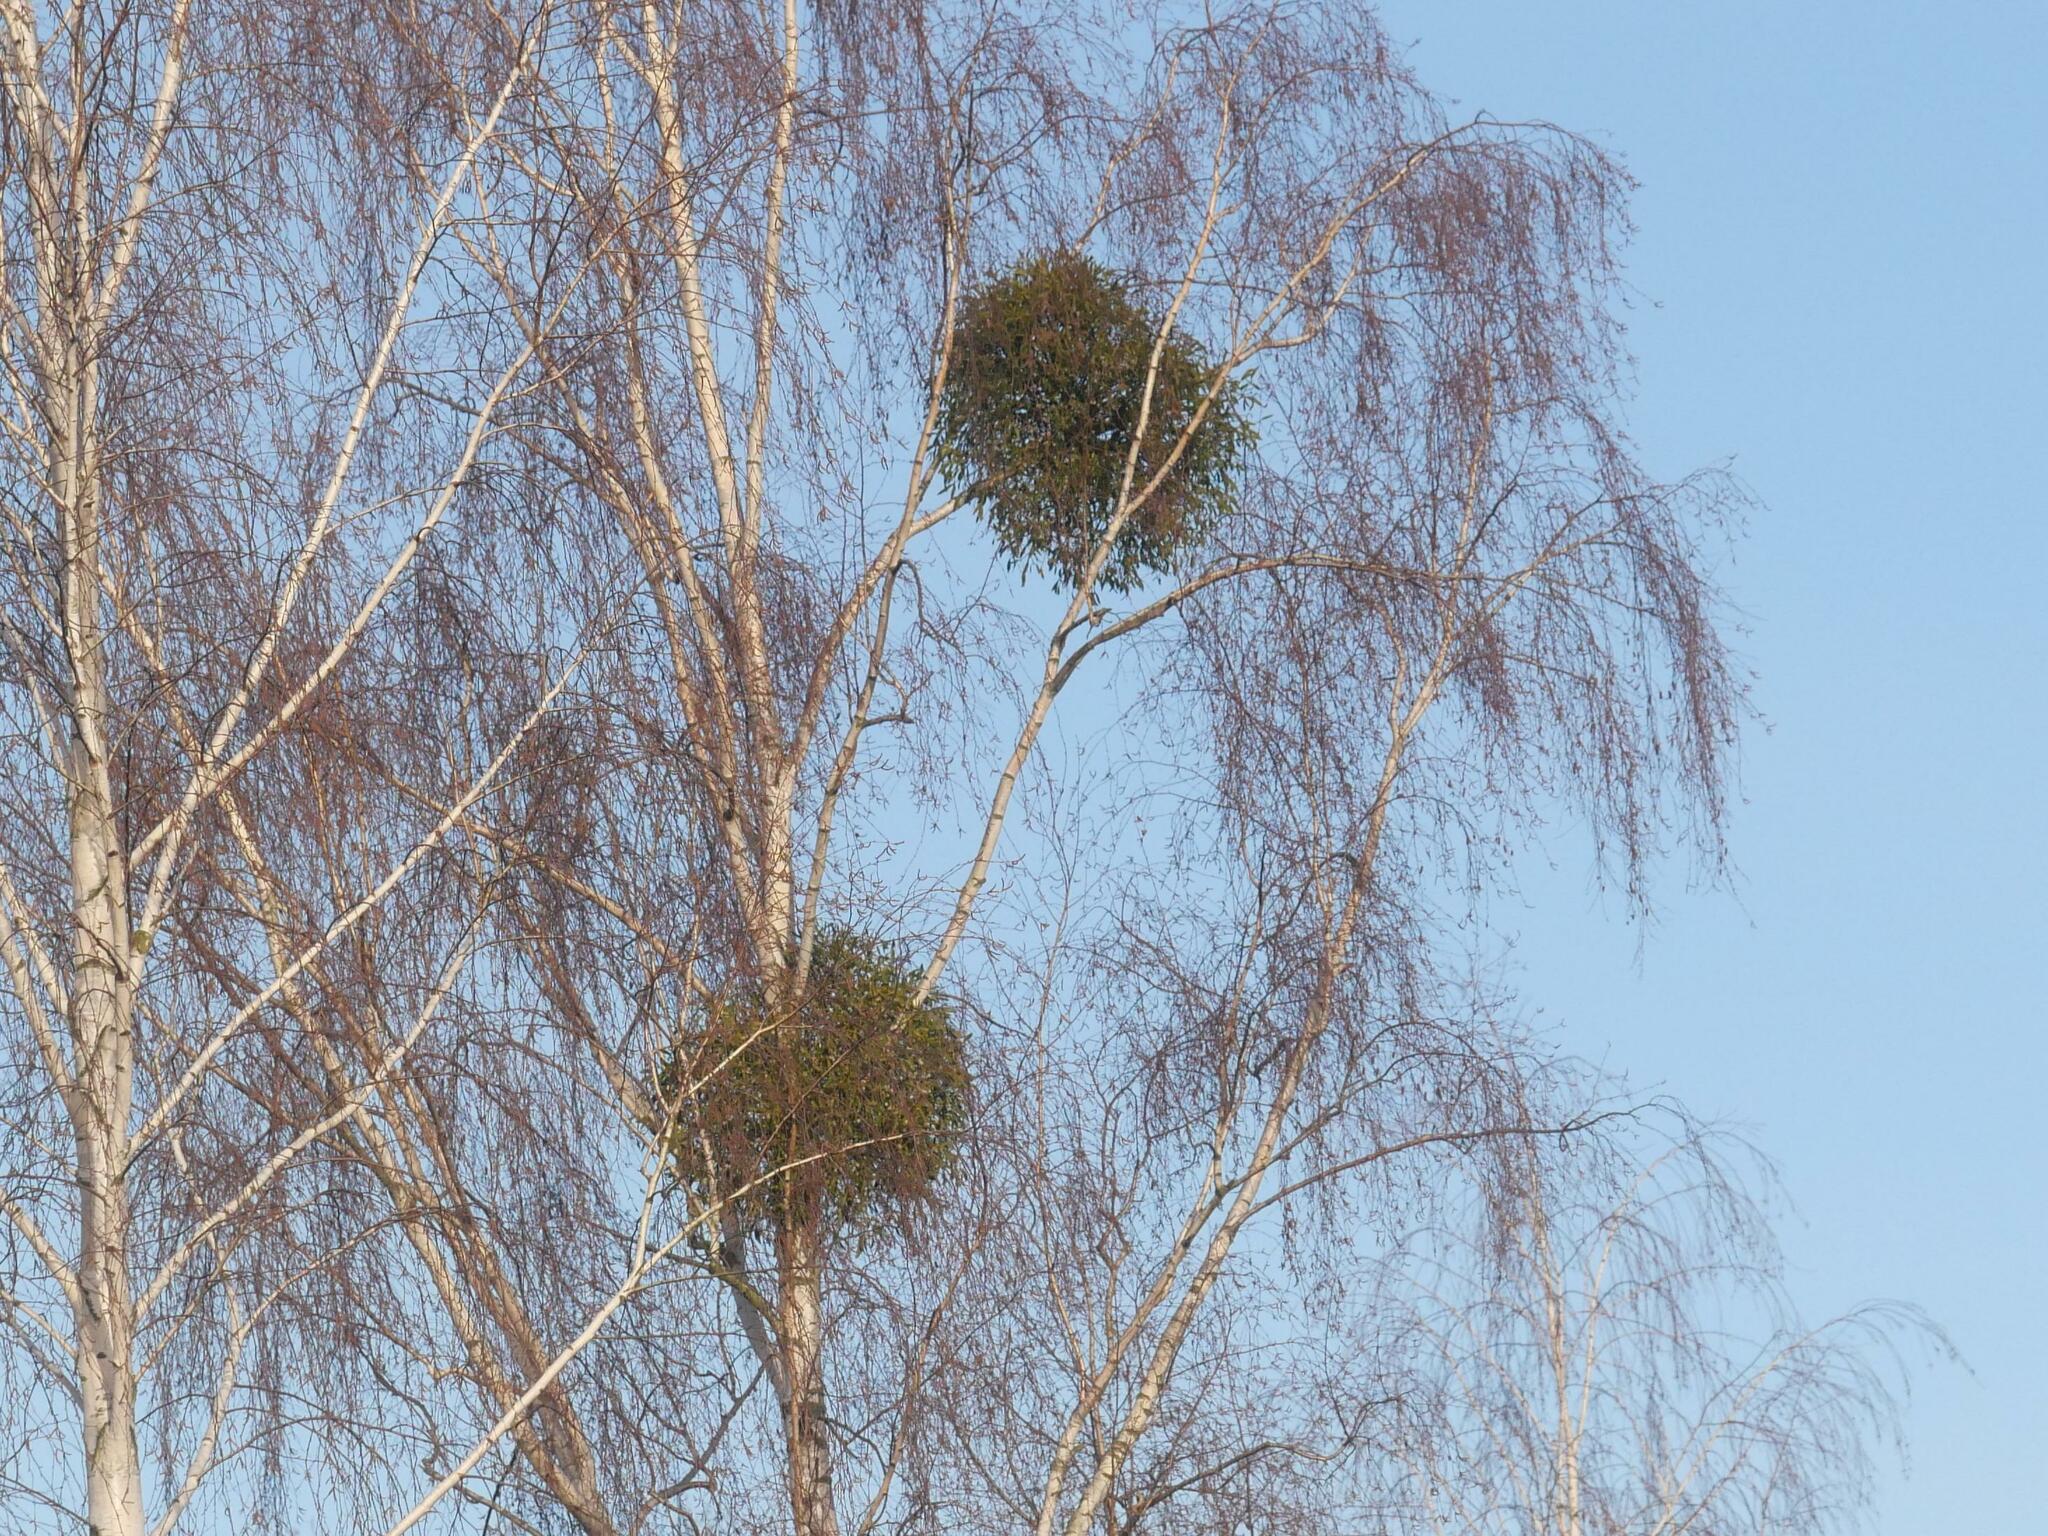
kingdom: Plantae
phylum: Tracheophyta
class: Magnoliopsida
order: Santalales
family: Viscaceae
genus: Viscum
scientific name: Viscum album
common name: Mistletoe
